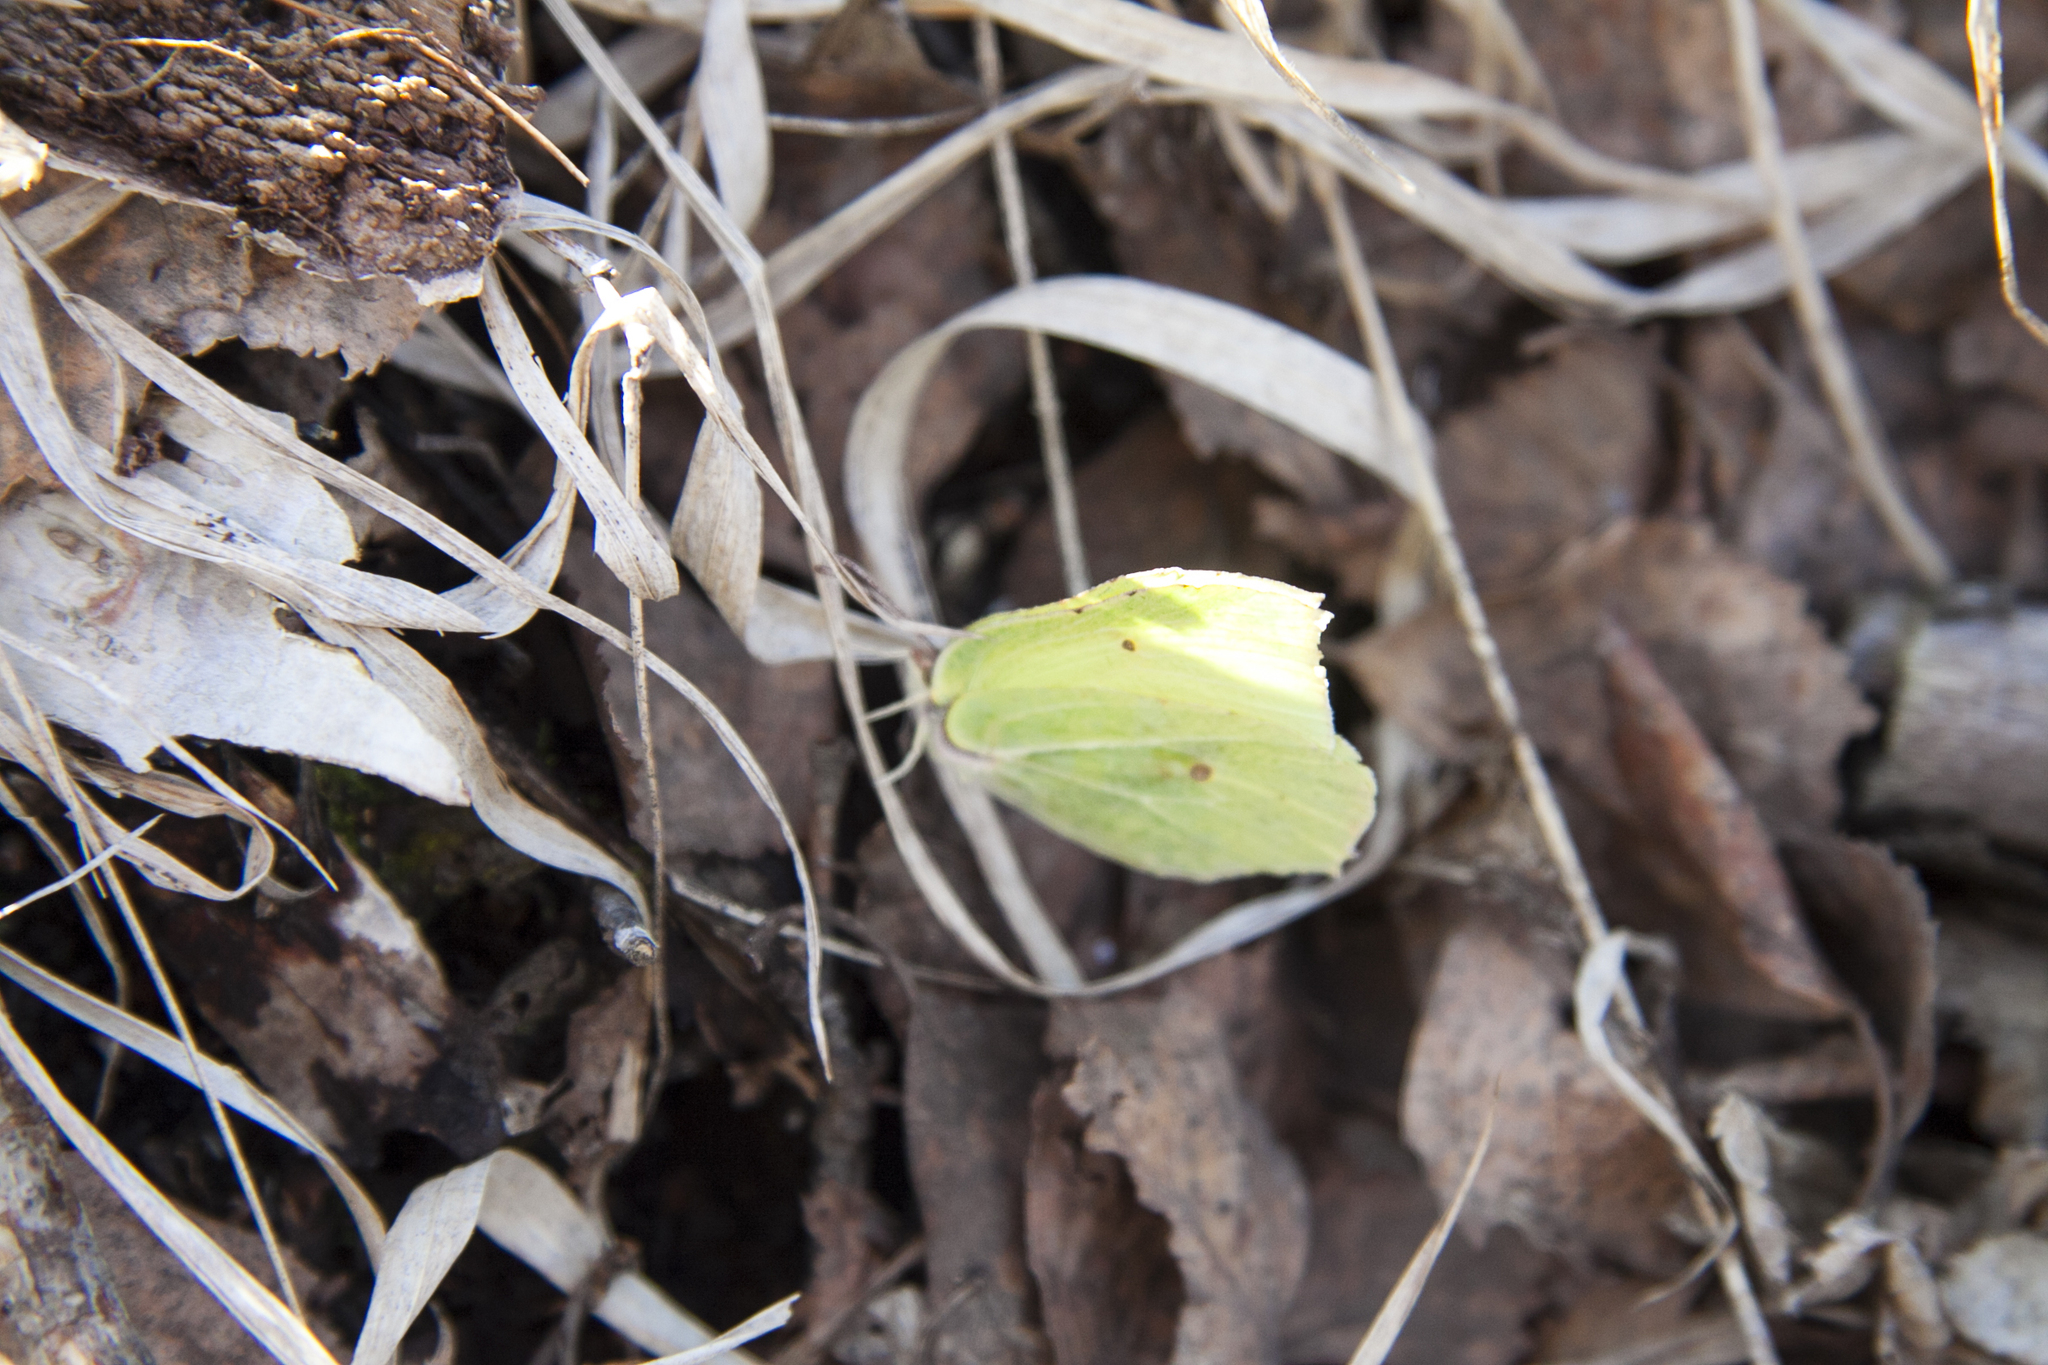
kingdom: Animalia
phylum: Arthropoda
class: Insecta
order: Lepidoptera
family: Pieridae
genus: Gonepteryx
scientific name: Gonepteryx rhamni
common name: Brimstone
